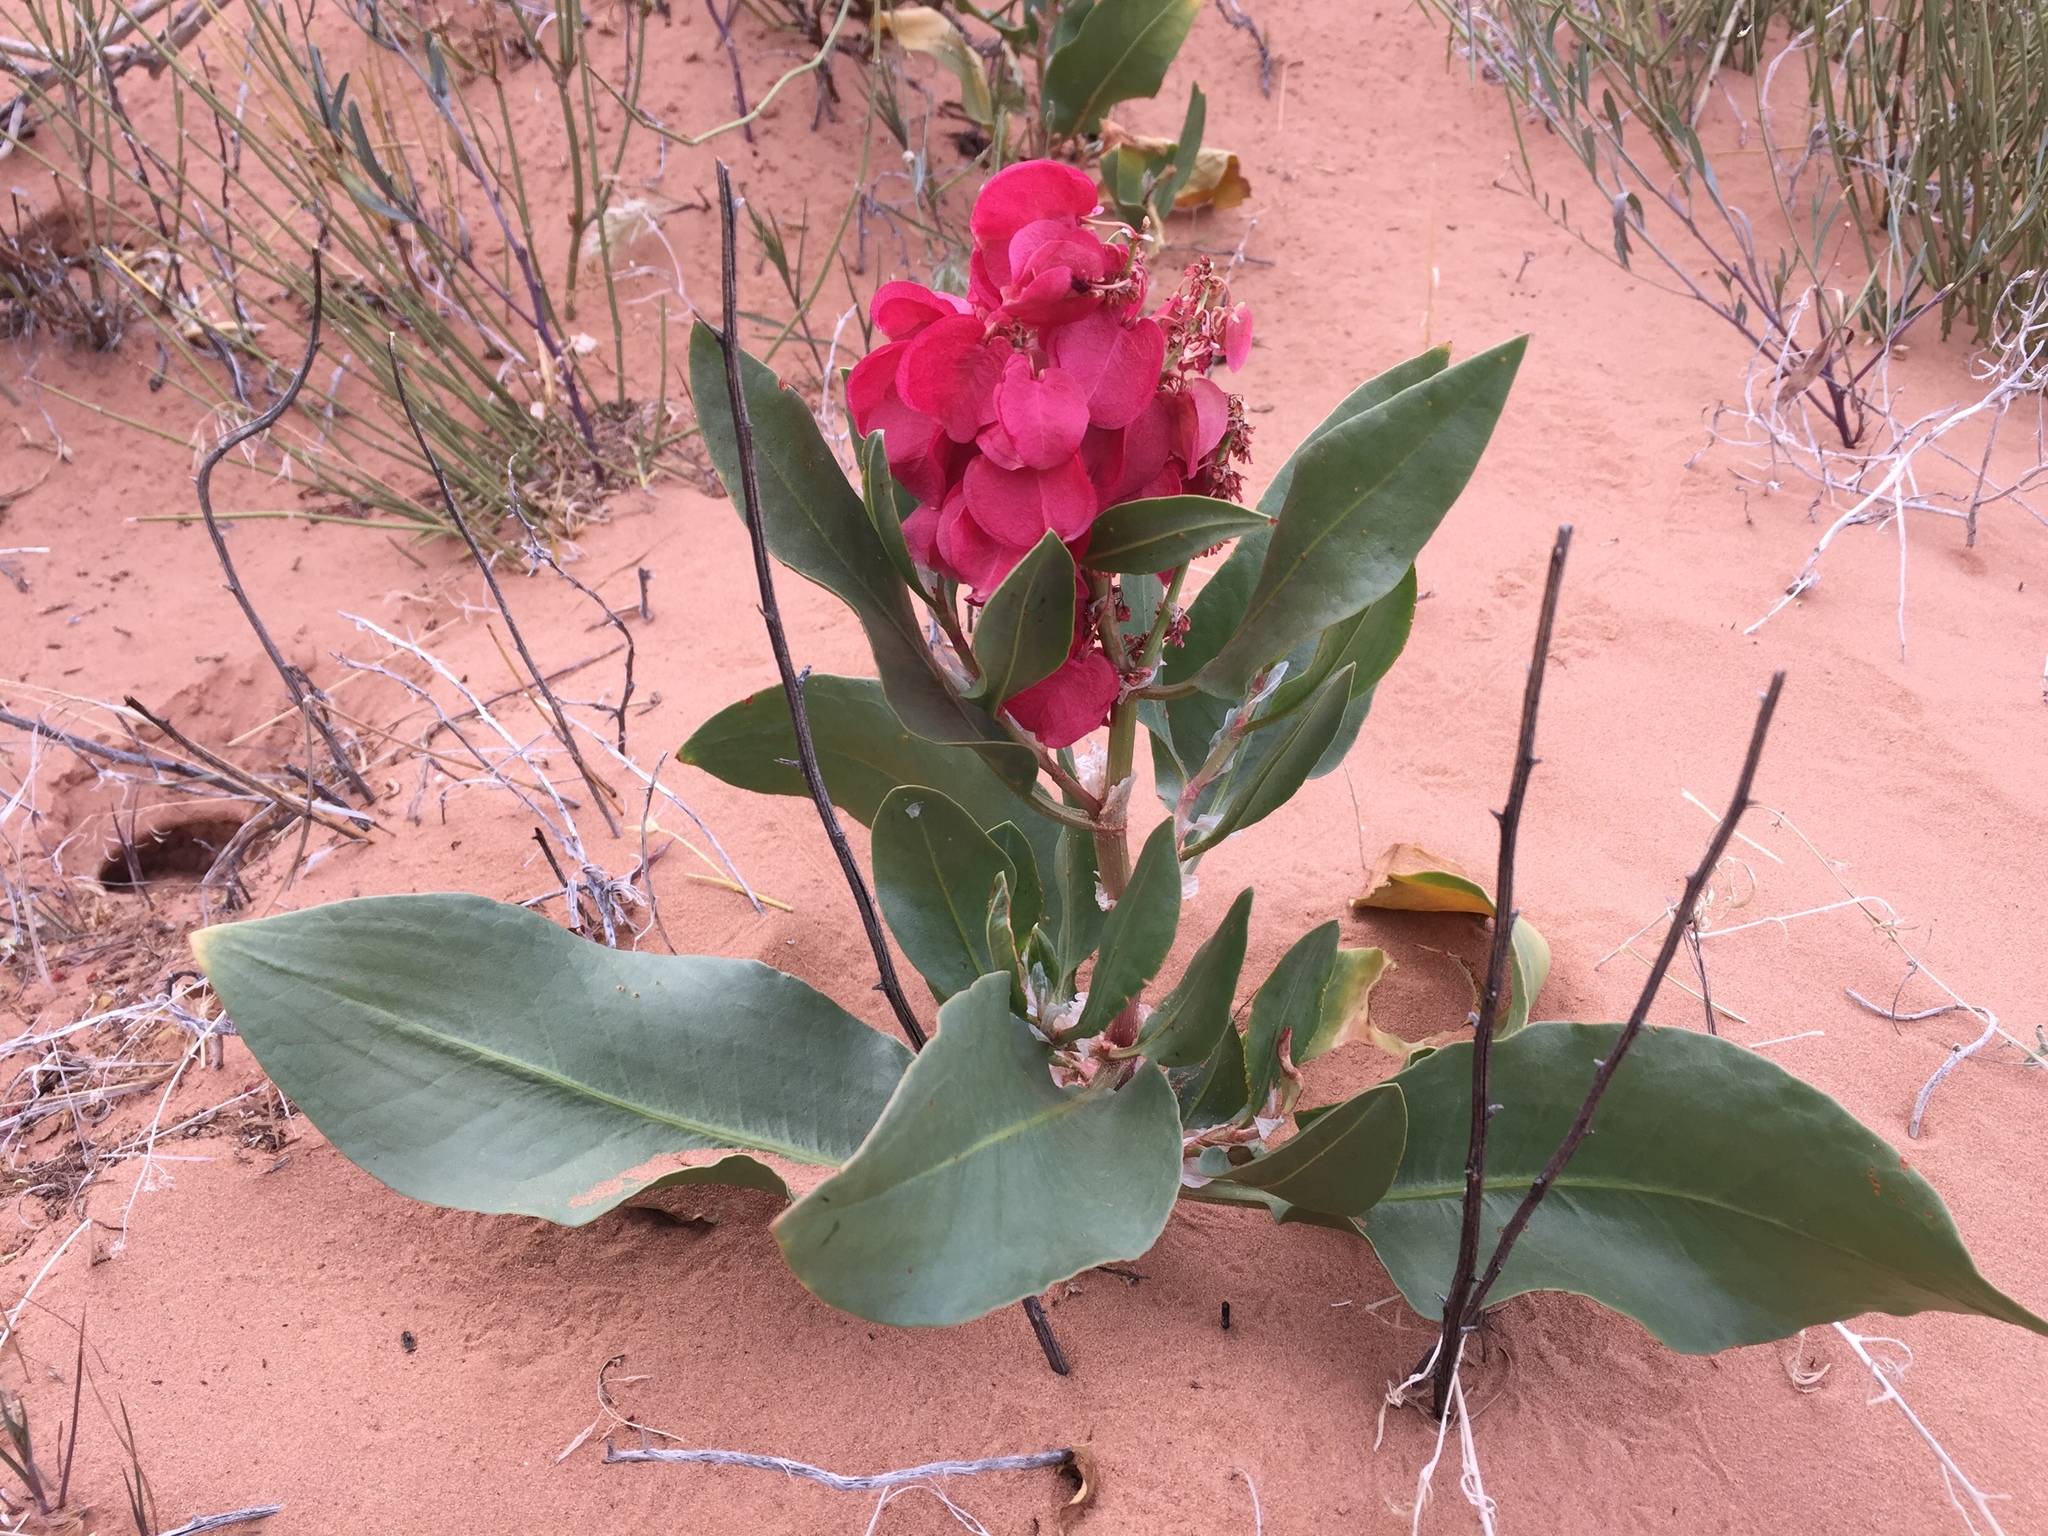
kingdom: Plantae
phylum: Tracheophyta
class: Magnoliopsida
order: Caryophyllales
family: Polygonaceae
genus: Rumex
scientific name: Rumex venosus
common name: Winged dock
